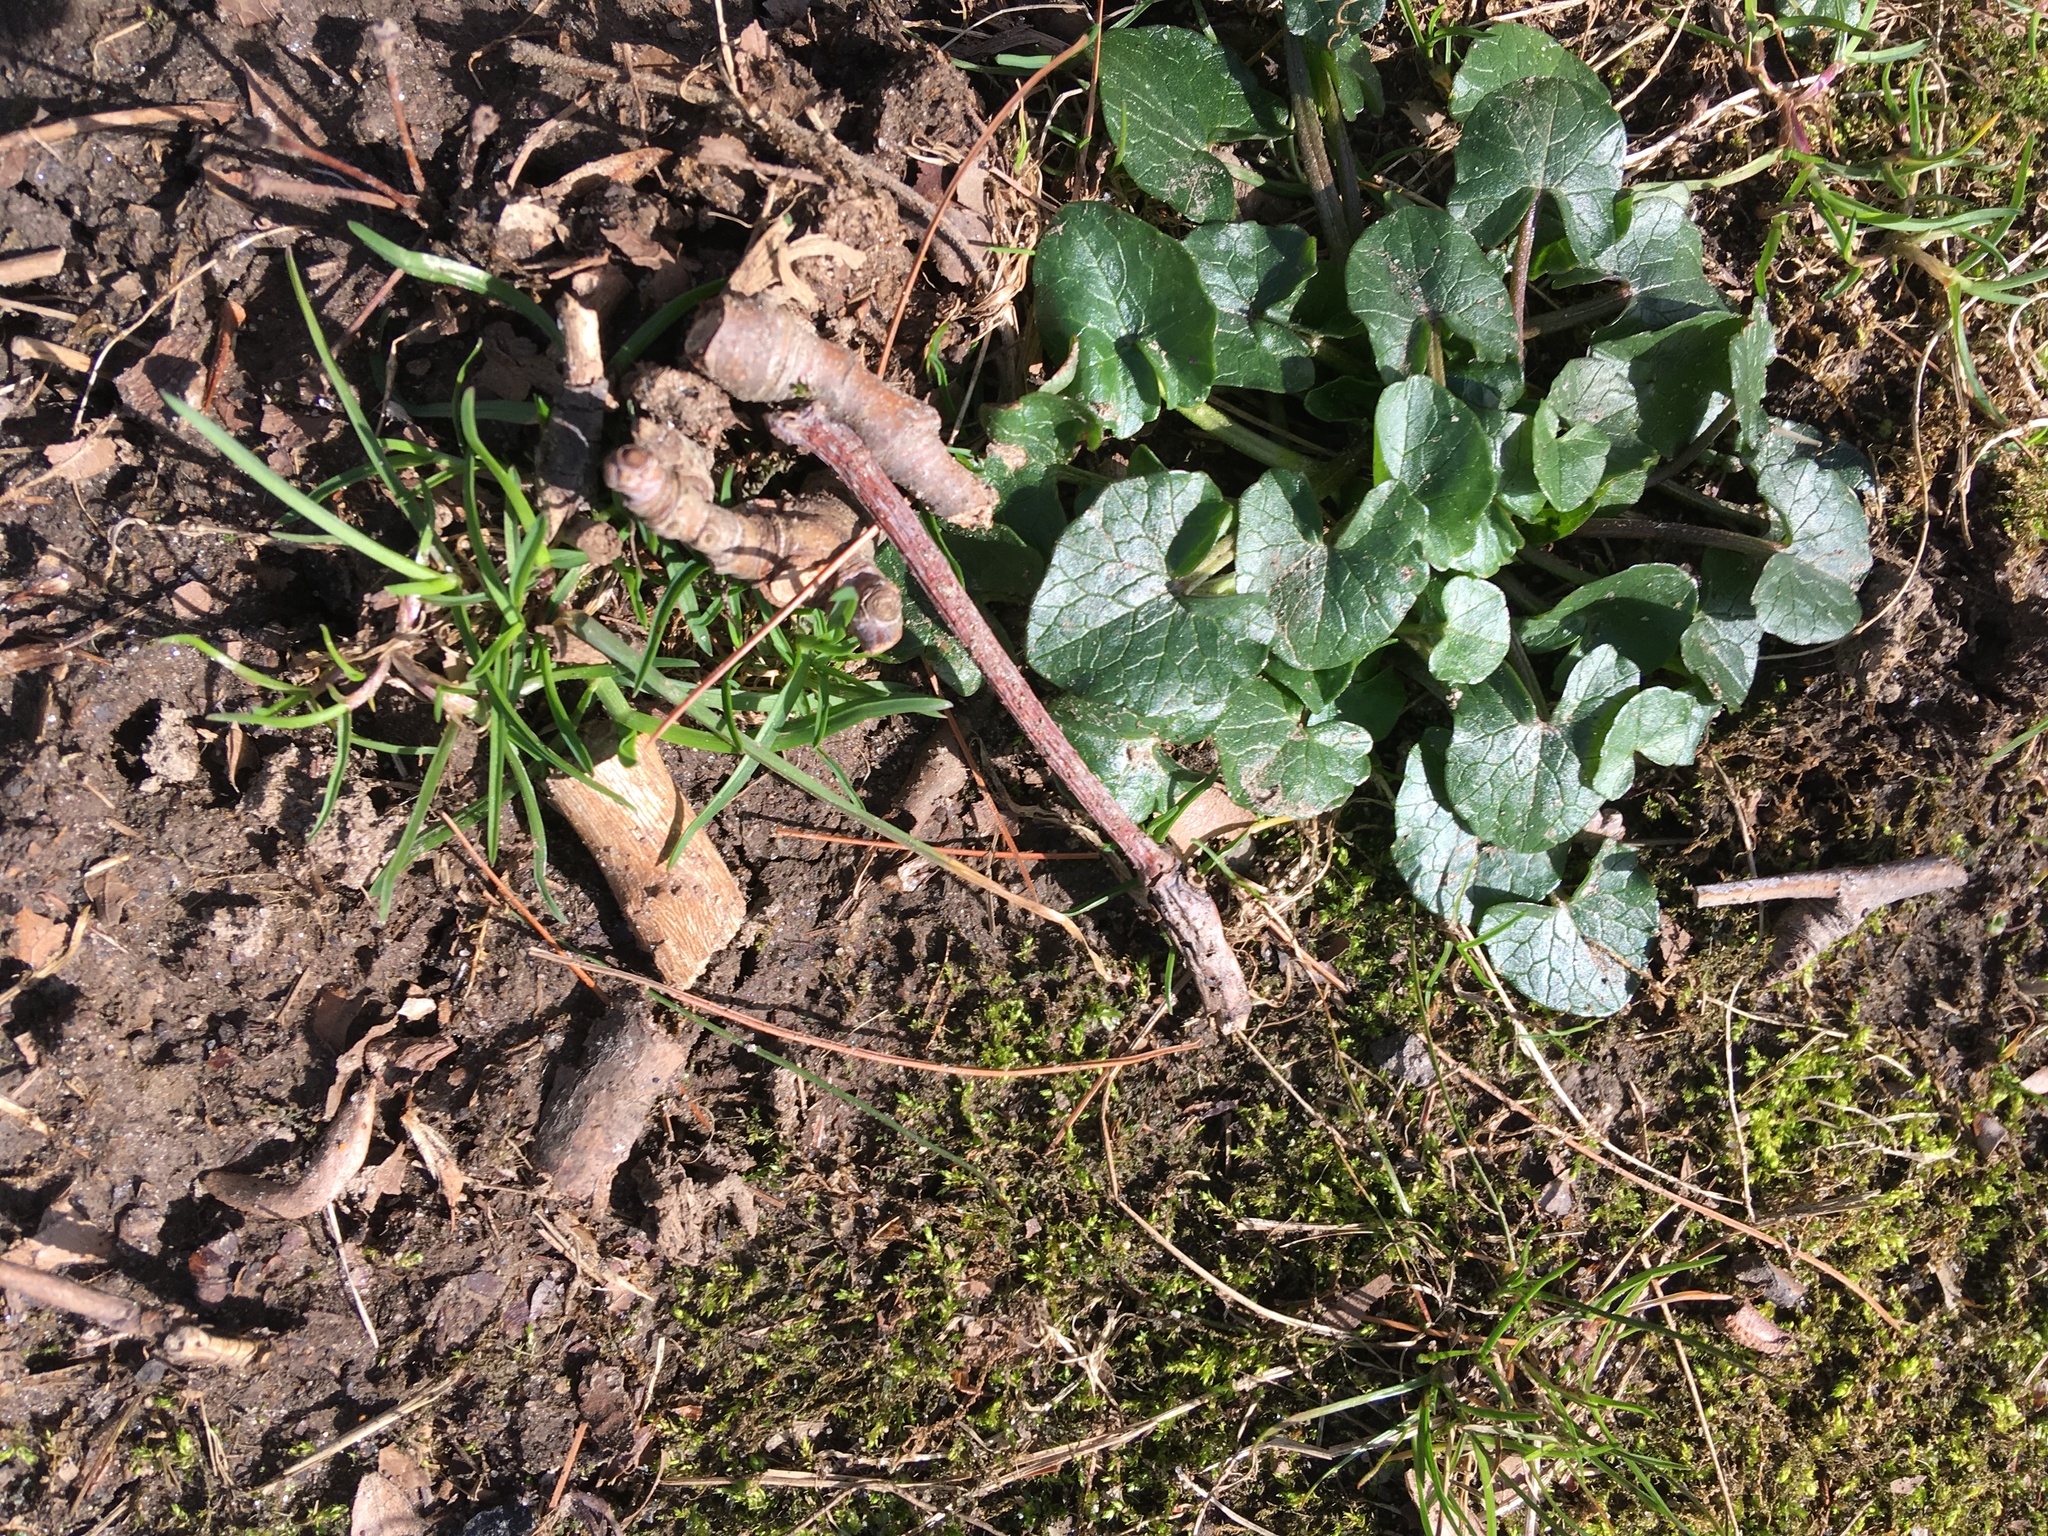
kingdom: Plantae
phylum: Tracheophyta
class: Magnoliopsida
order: Ranunculales
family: Ranunculaceae
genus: Ficaria
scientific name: Ficaria verna
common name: Lesser celandine
